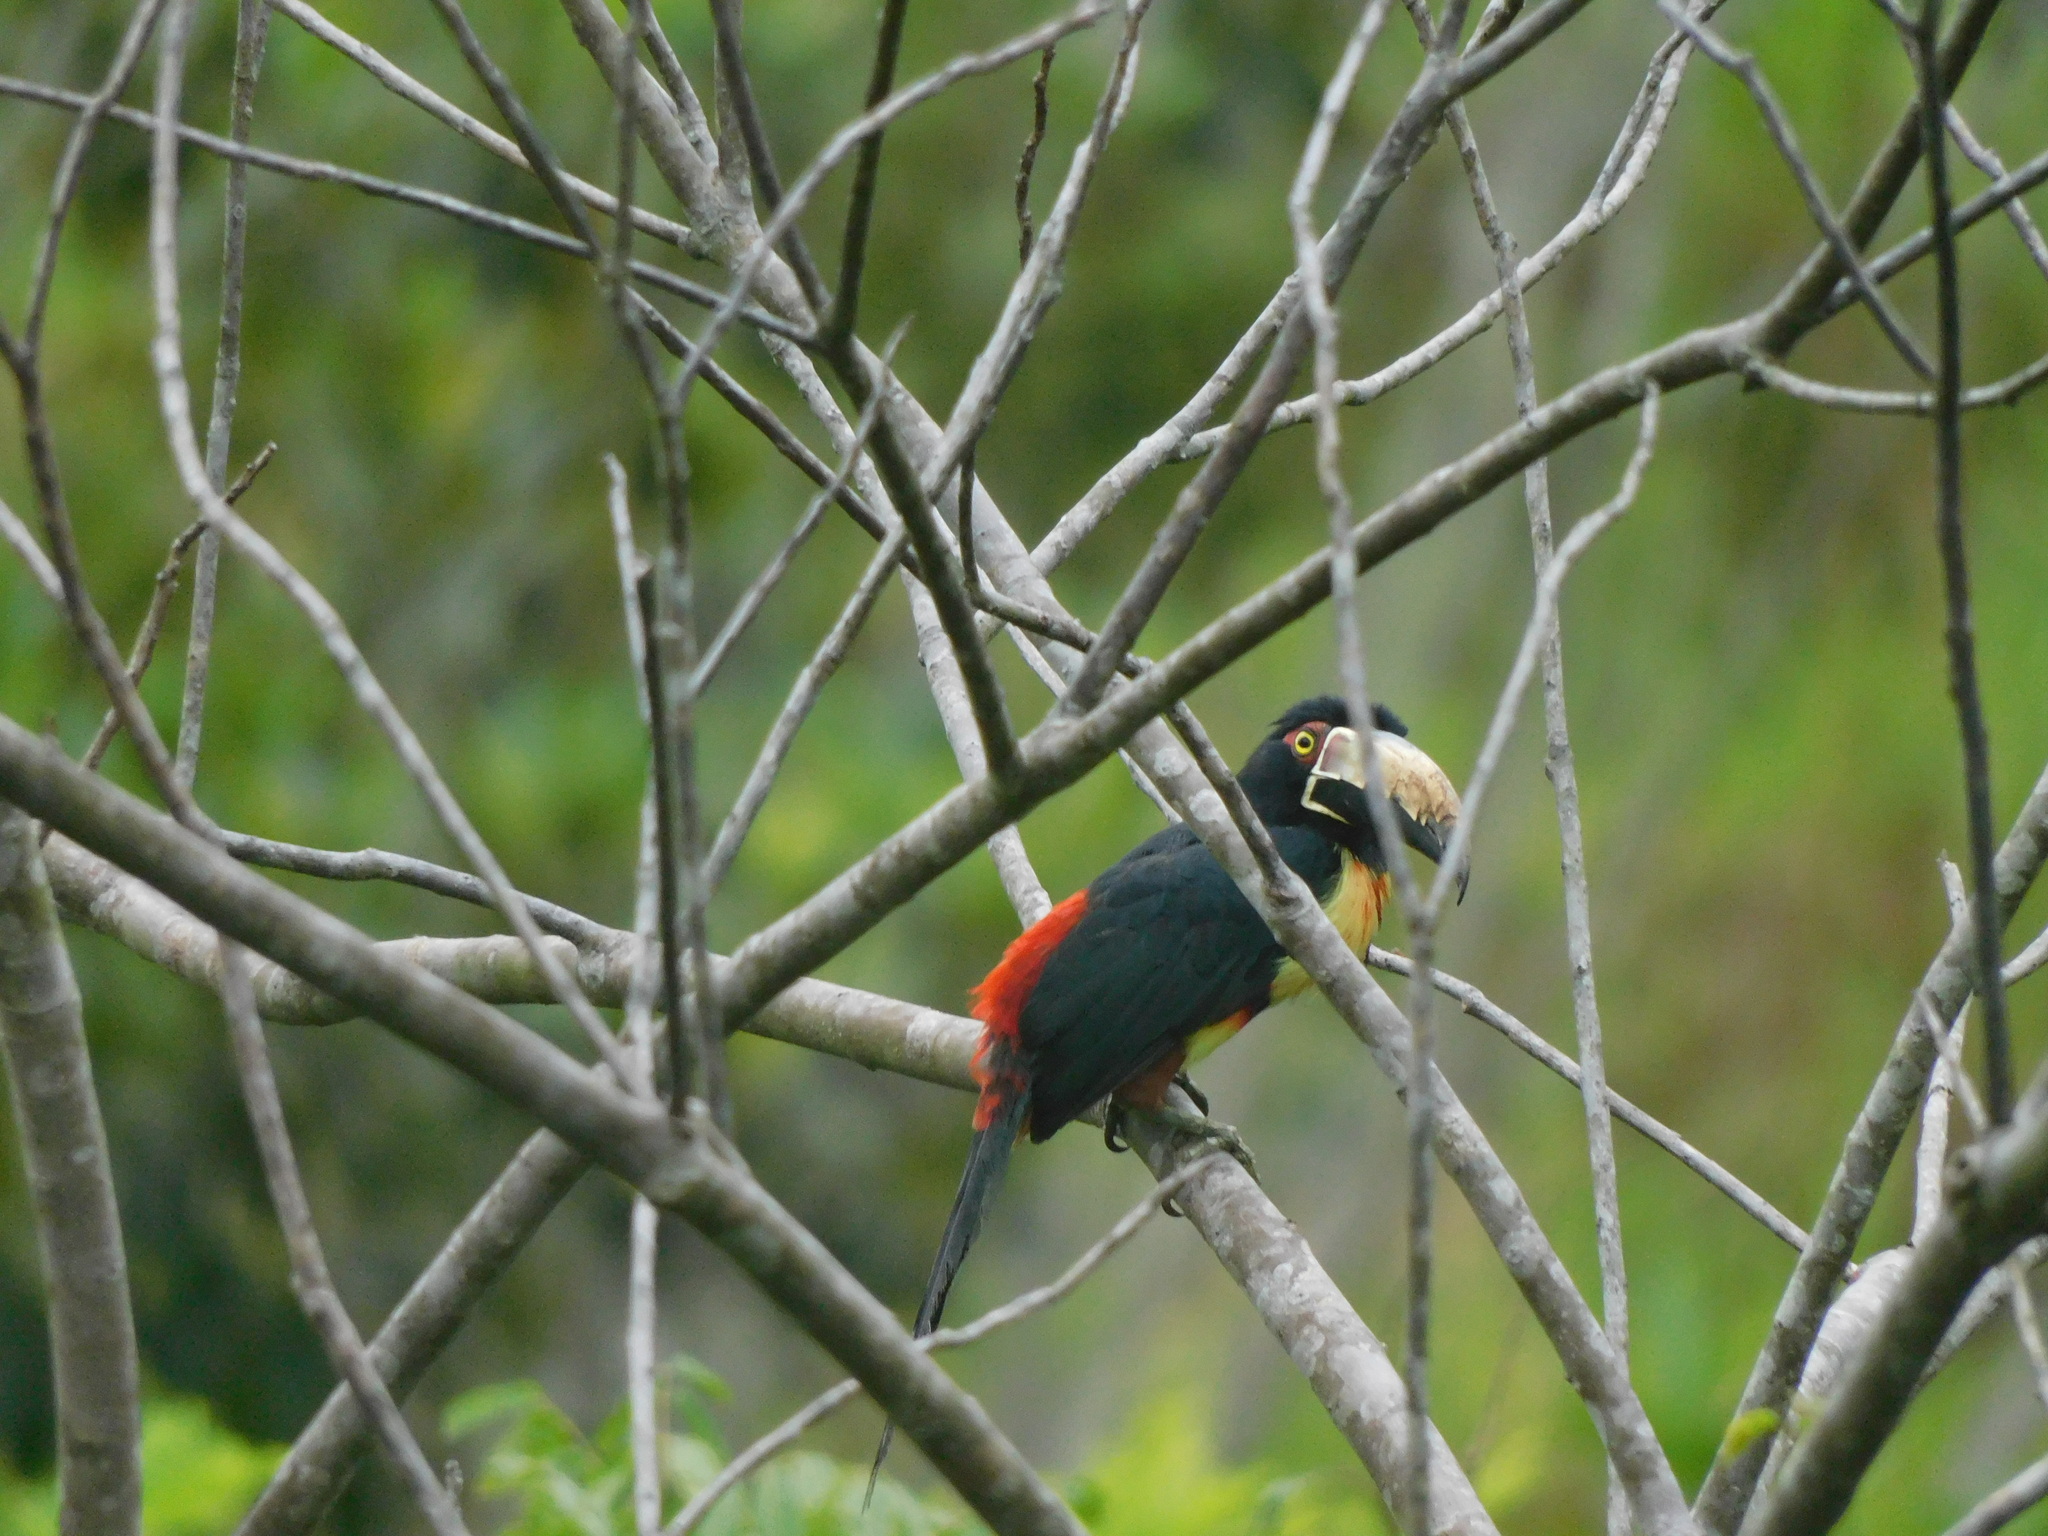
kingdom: Animalia
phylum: Chordata
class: Aves
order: Piciformes
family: Ramphastidae
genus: Pteroglossus
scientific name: Pteroglossus torquatus
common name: Collared aracari
